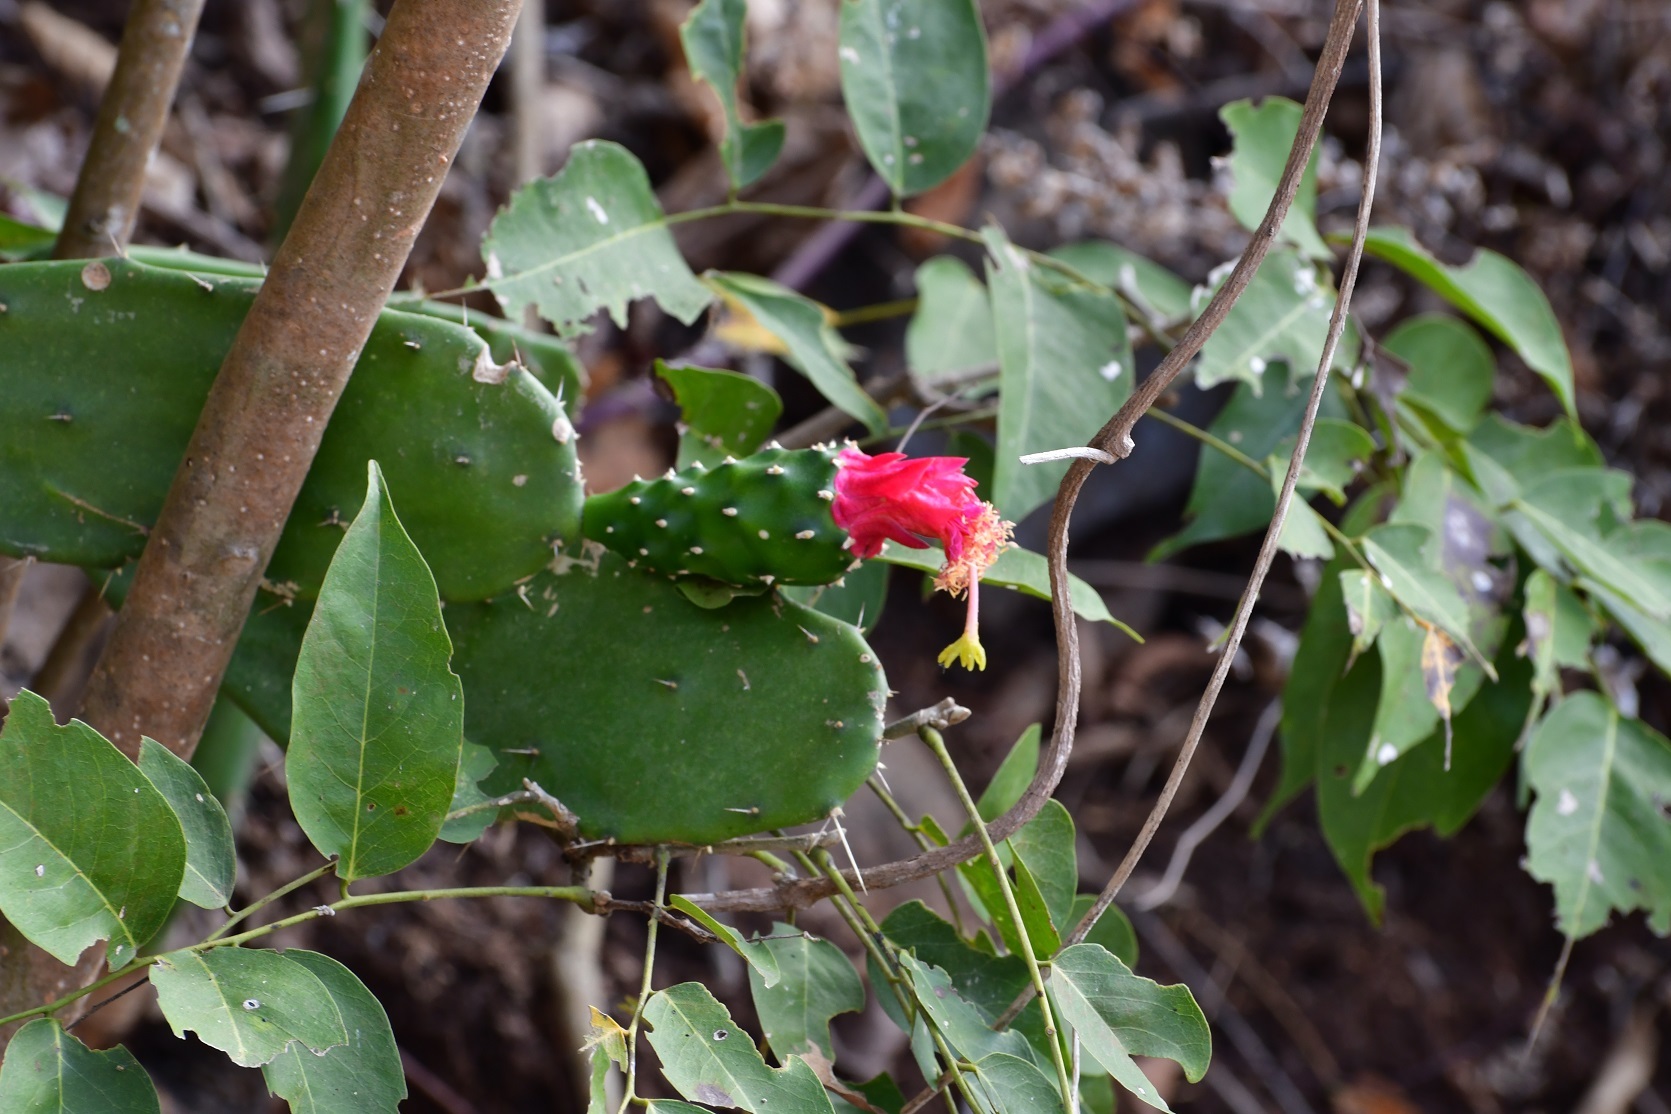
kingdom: Plantae
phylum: Tracheophyta
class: Magnoliopsida
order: Caryophyllales
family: Cactaceae
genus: Opuntia
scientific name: Opuntia dejecta
